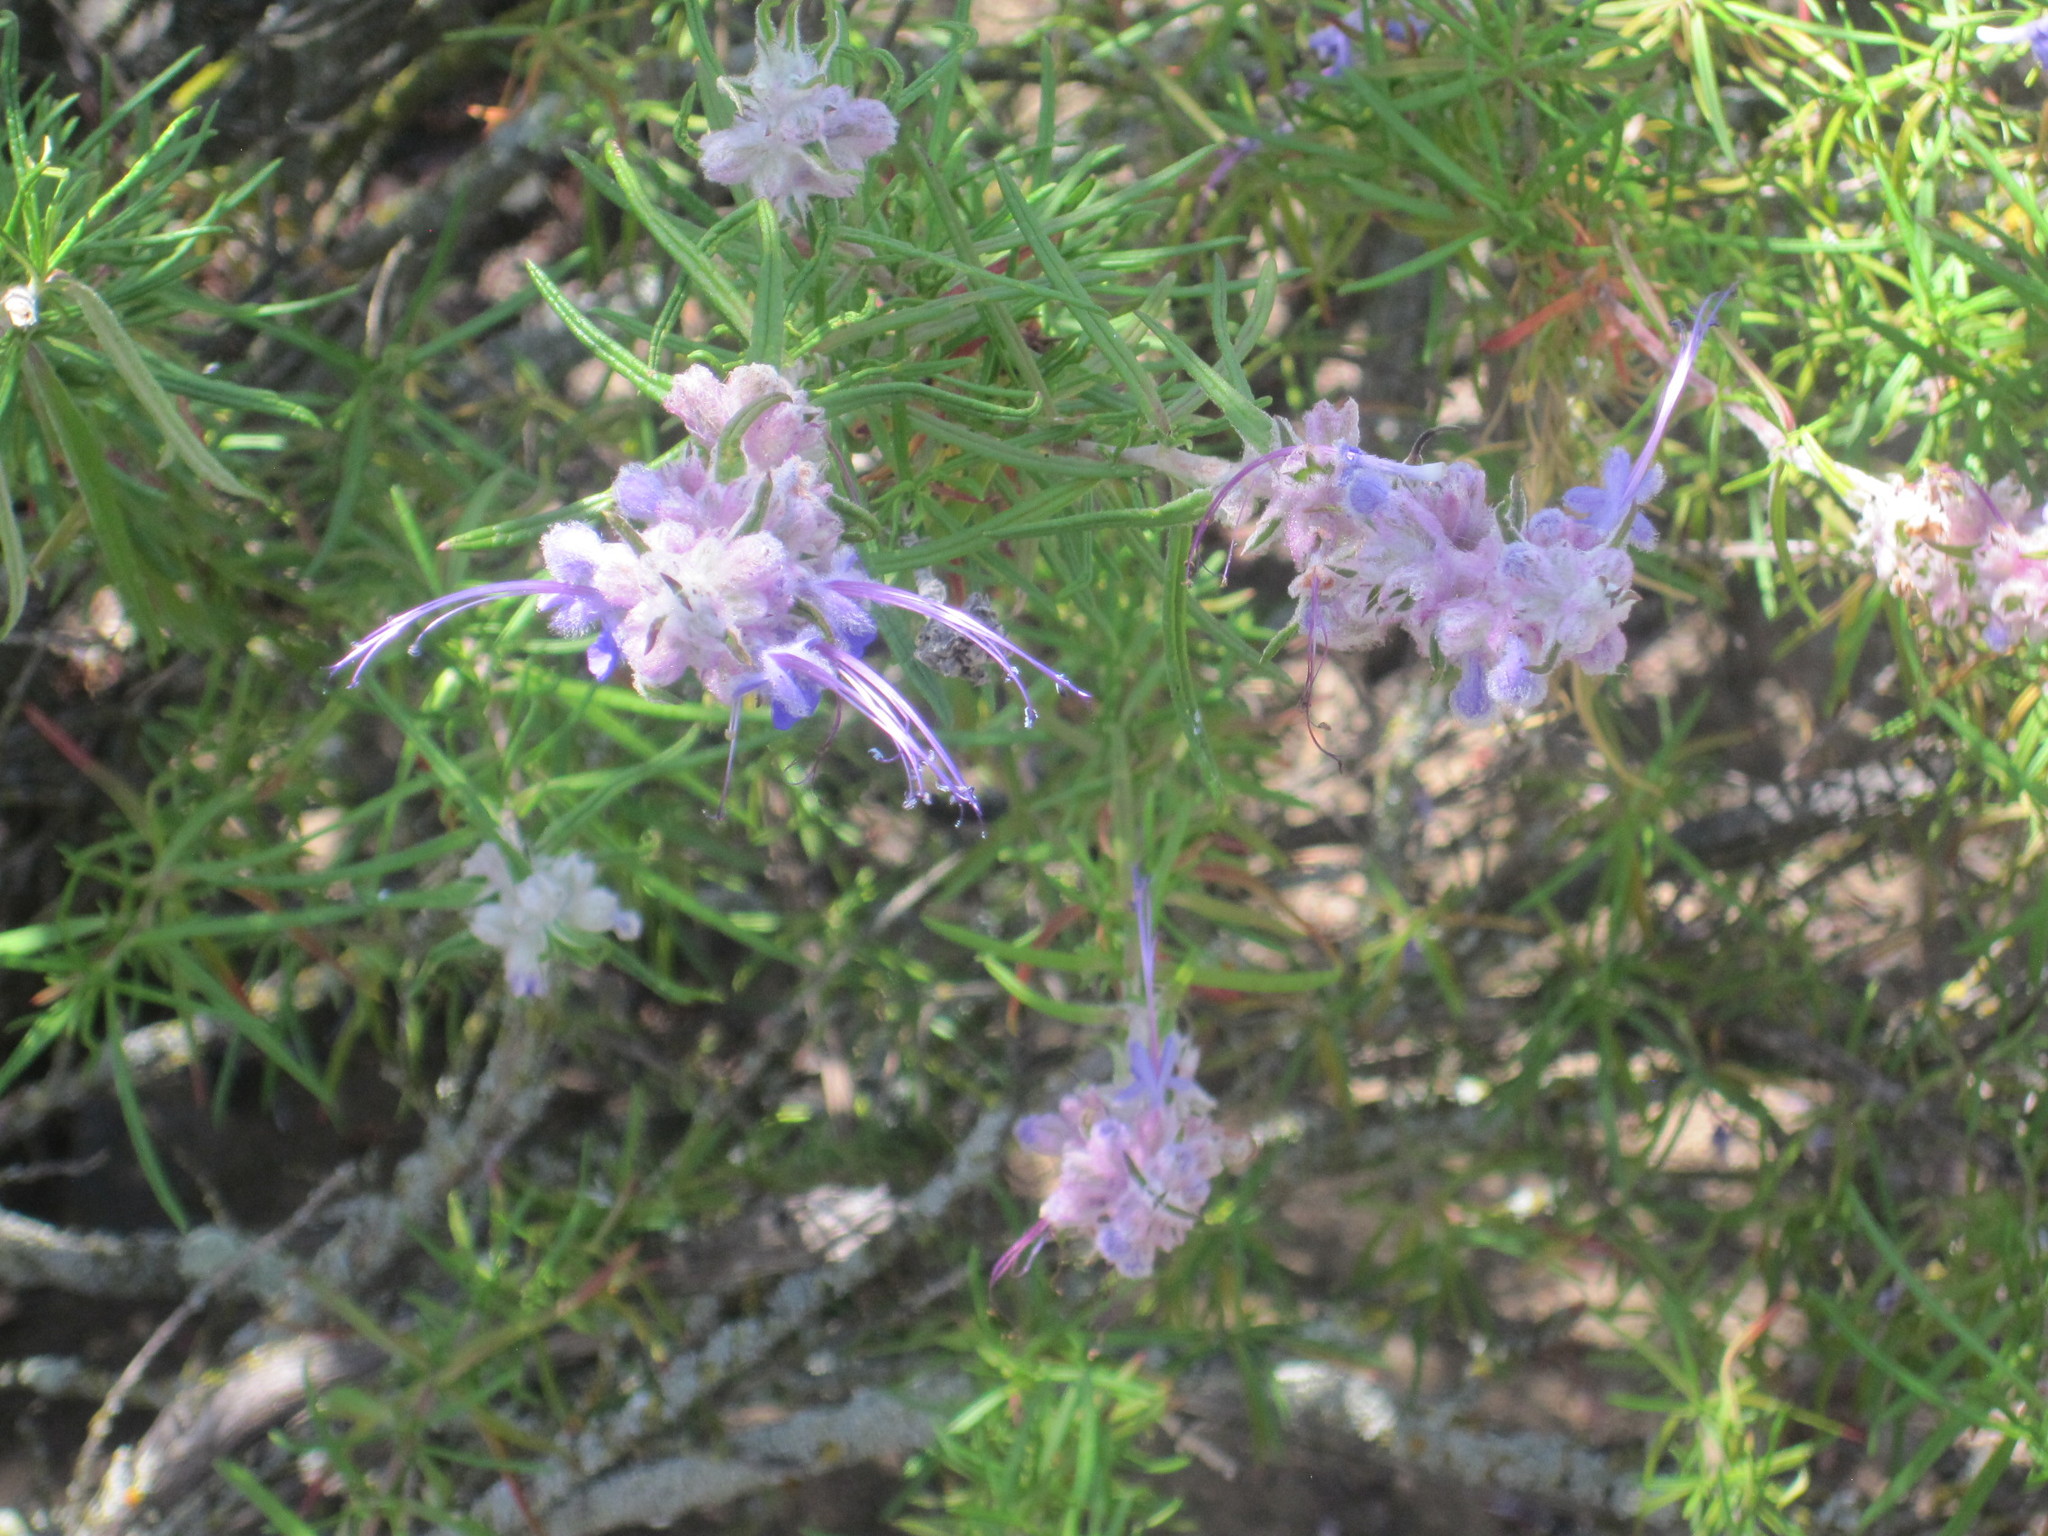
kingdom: Plantae
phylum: Tracheophyta
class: Magnoliopsida
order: Lamiales
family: Lamiaceae
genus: Trichostema
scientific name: Trichostema lanatum
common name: Woolly bluecurls
